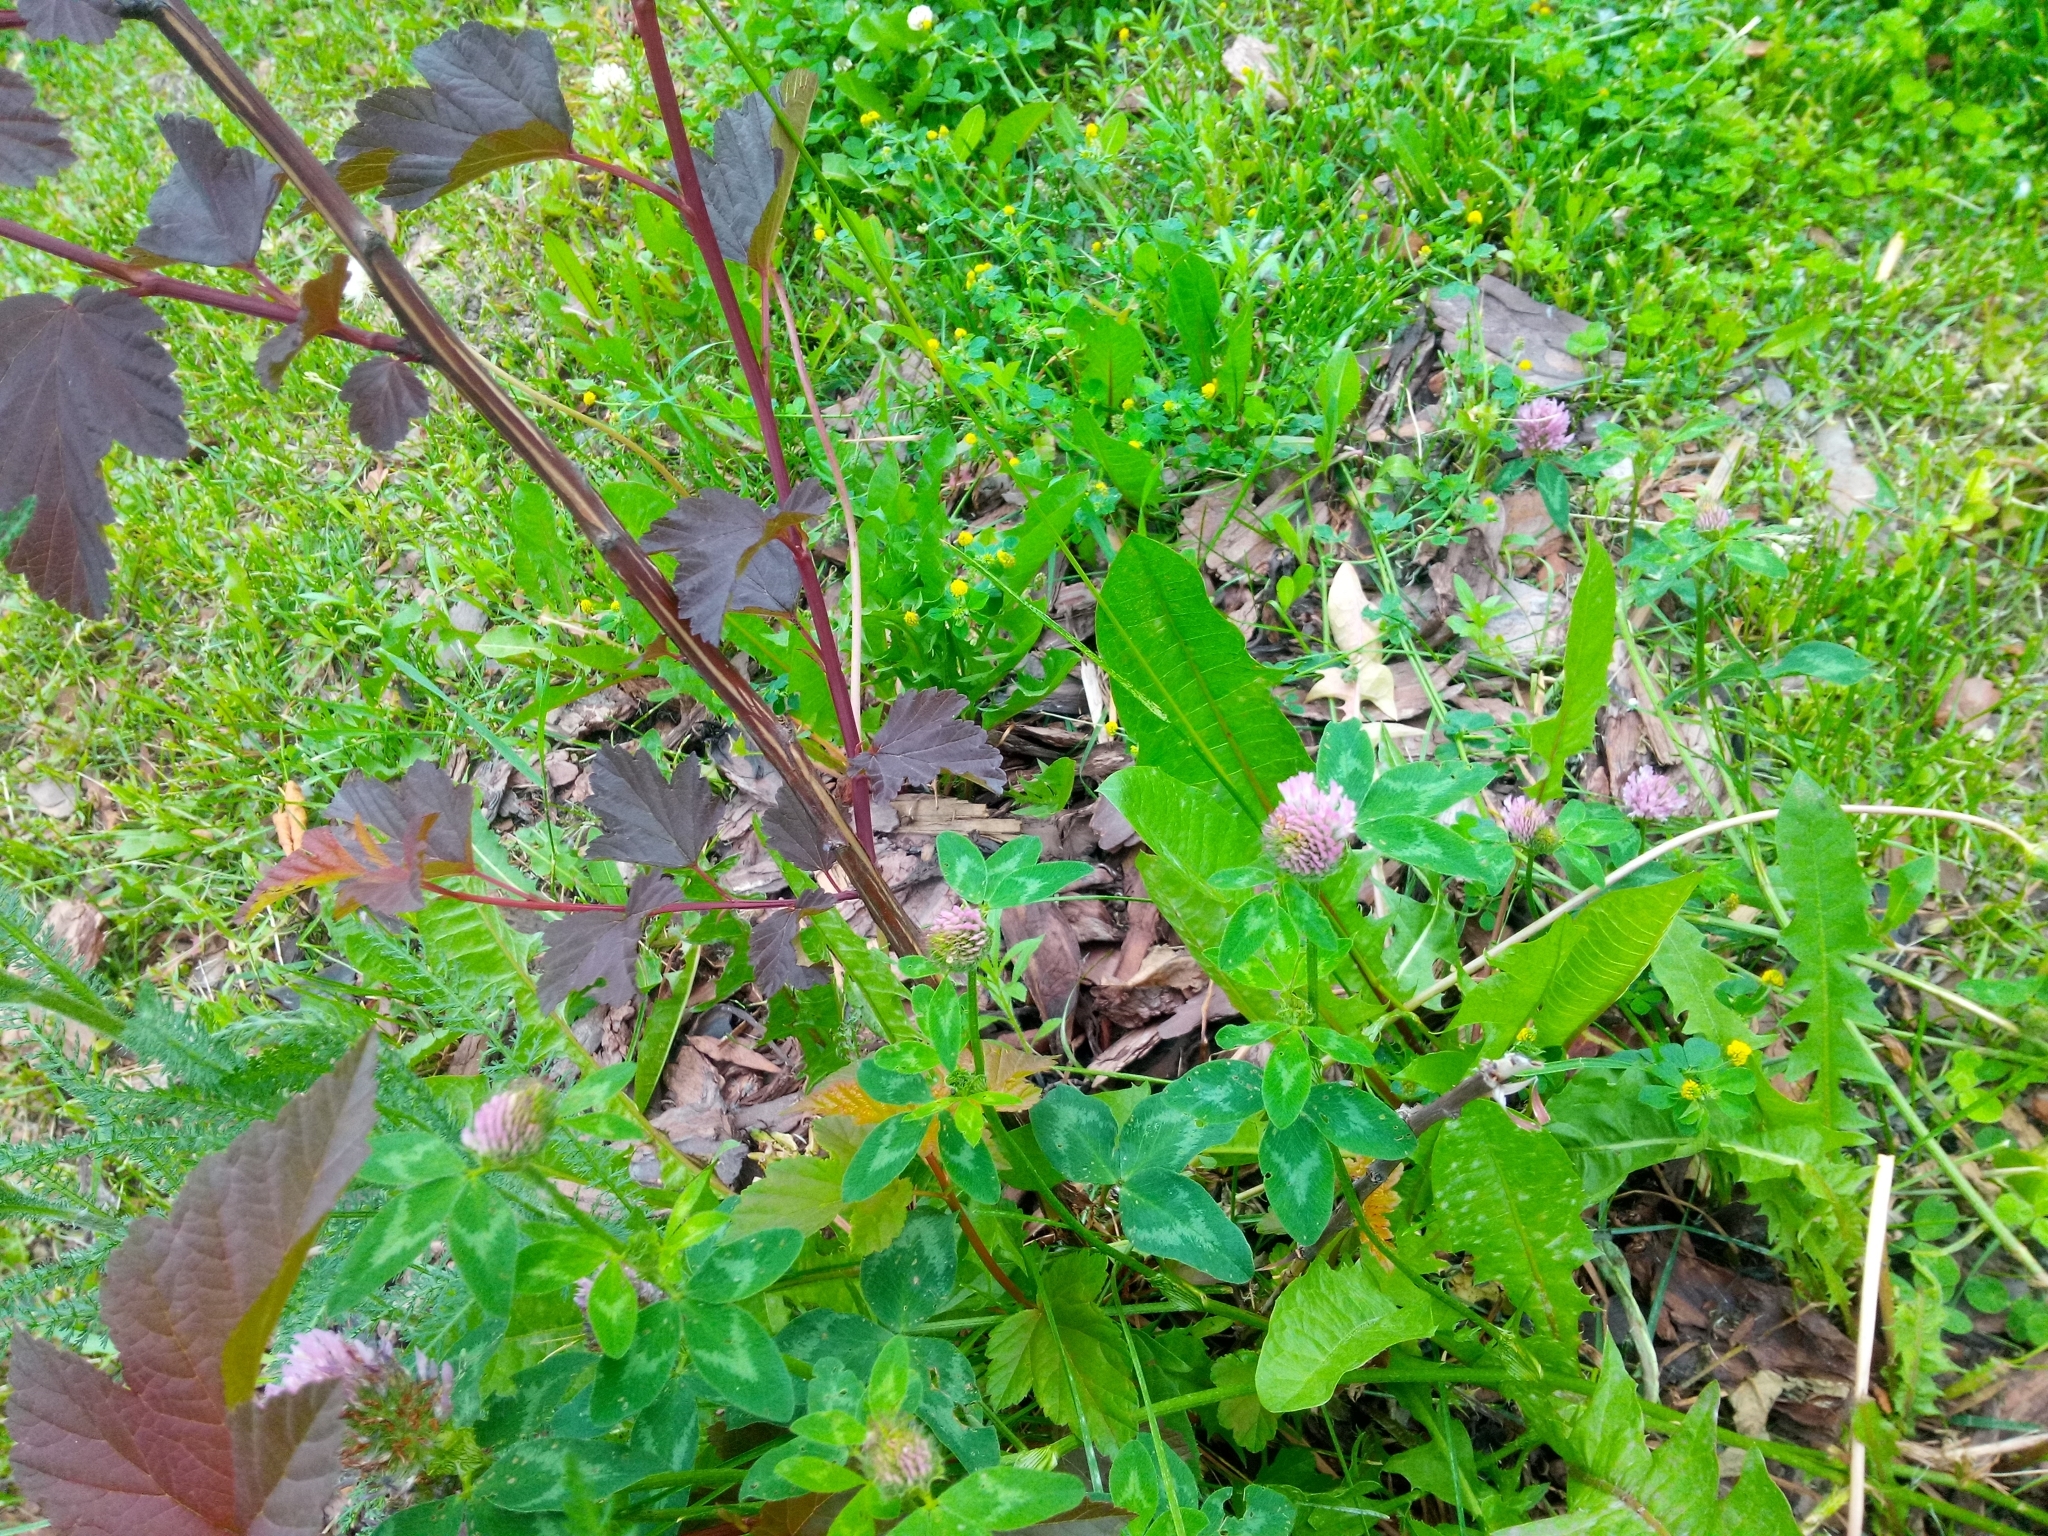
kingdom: Plantae
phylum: Tracheophyta
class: Magnoliopsida
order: Fabales
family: Fabaceae
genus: Trifolium
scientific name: Trifolium pratense
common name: Red clover
